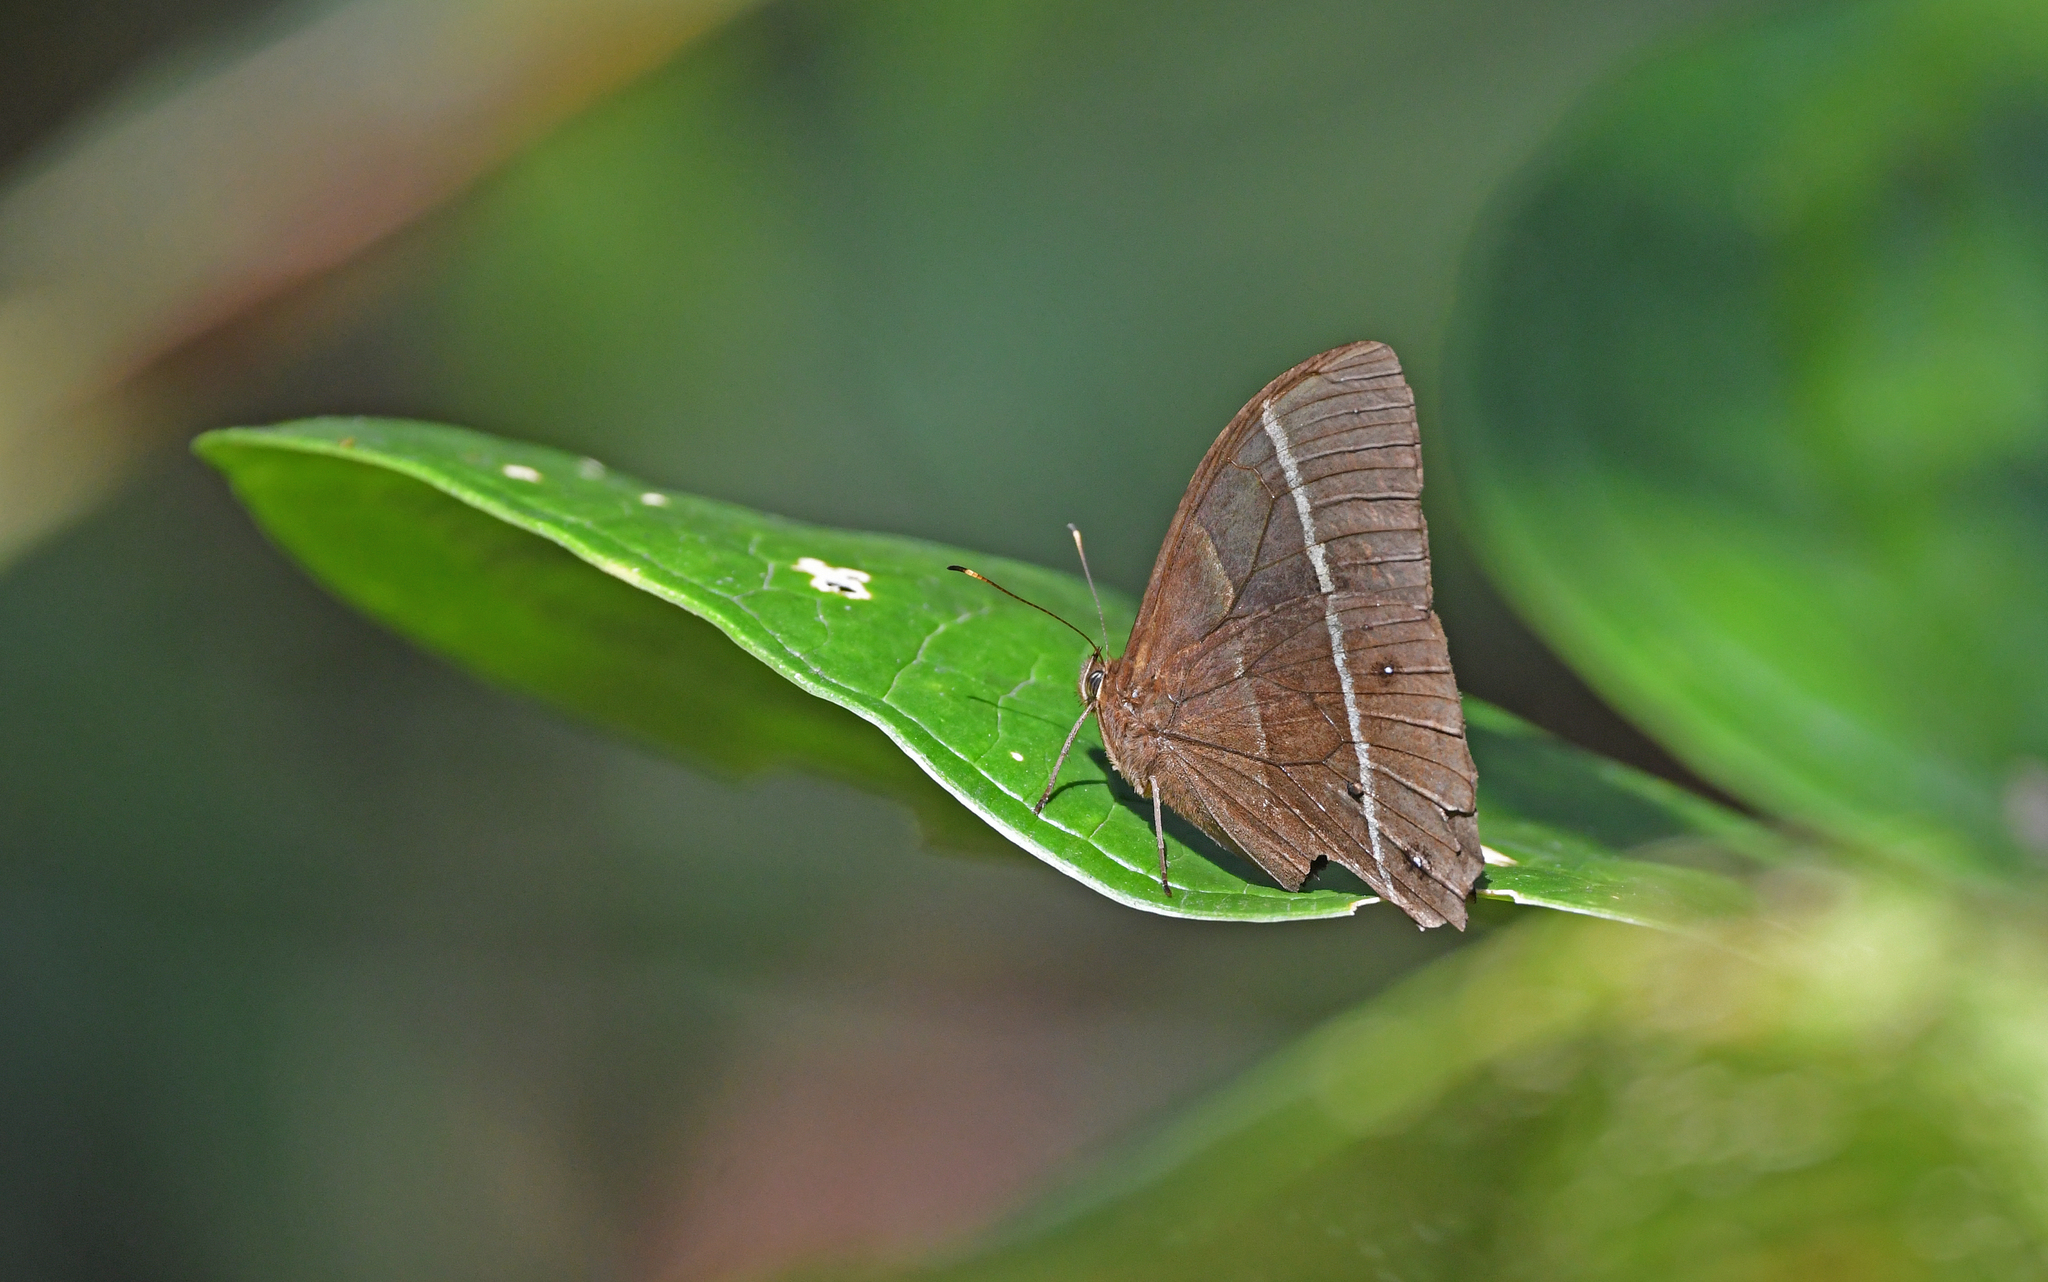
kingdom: Animalia
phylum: Arthropoda
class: Insecta
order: Lepidoptera
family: Nymphalidae
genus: Parataygetis
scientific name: Parataygetis lineata
